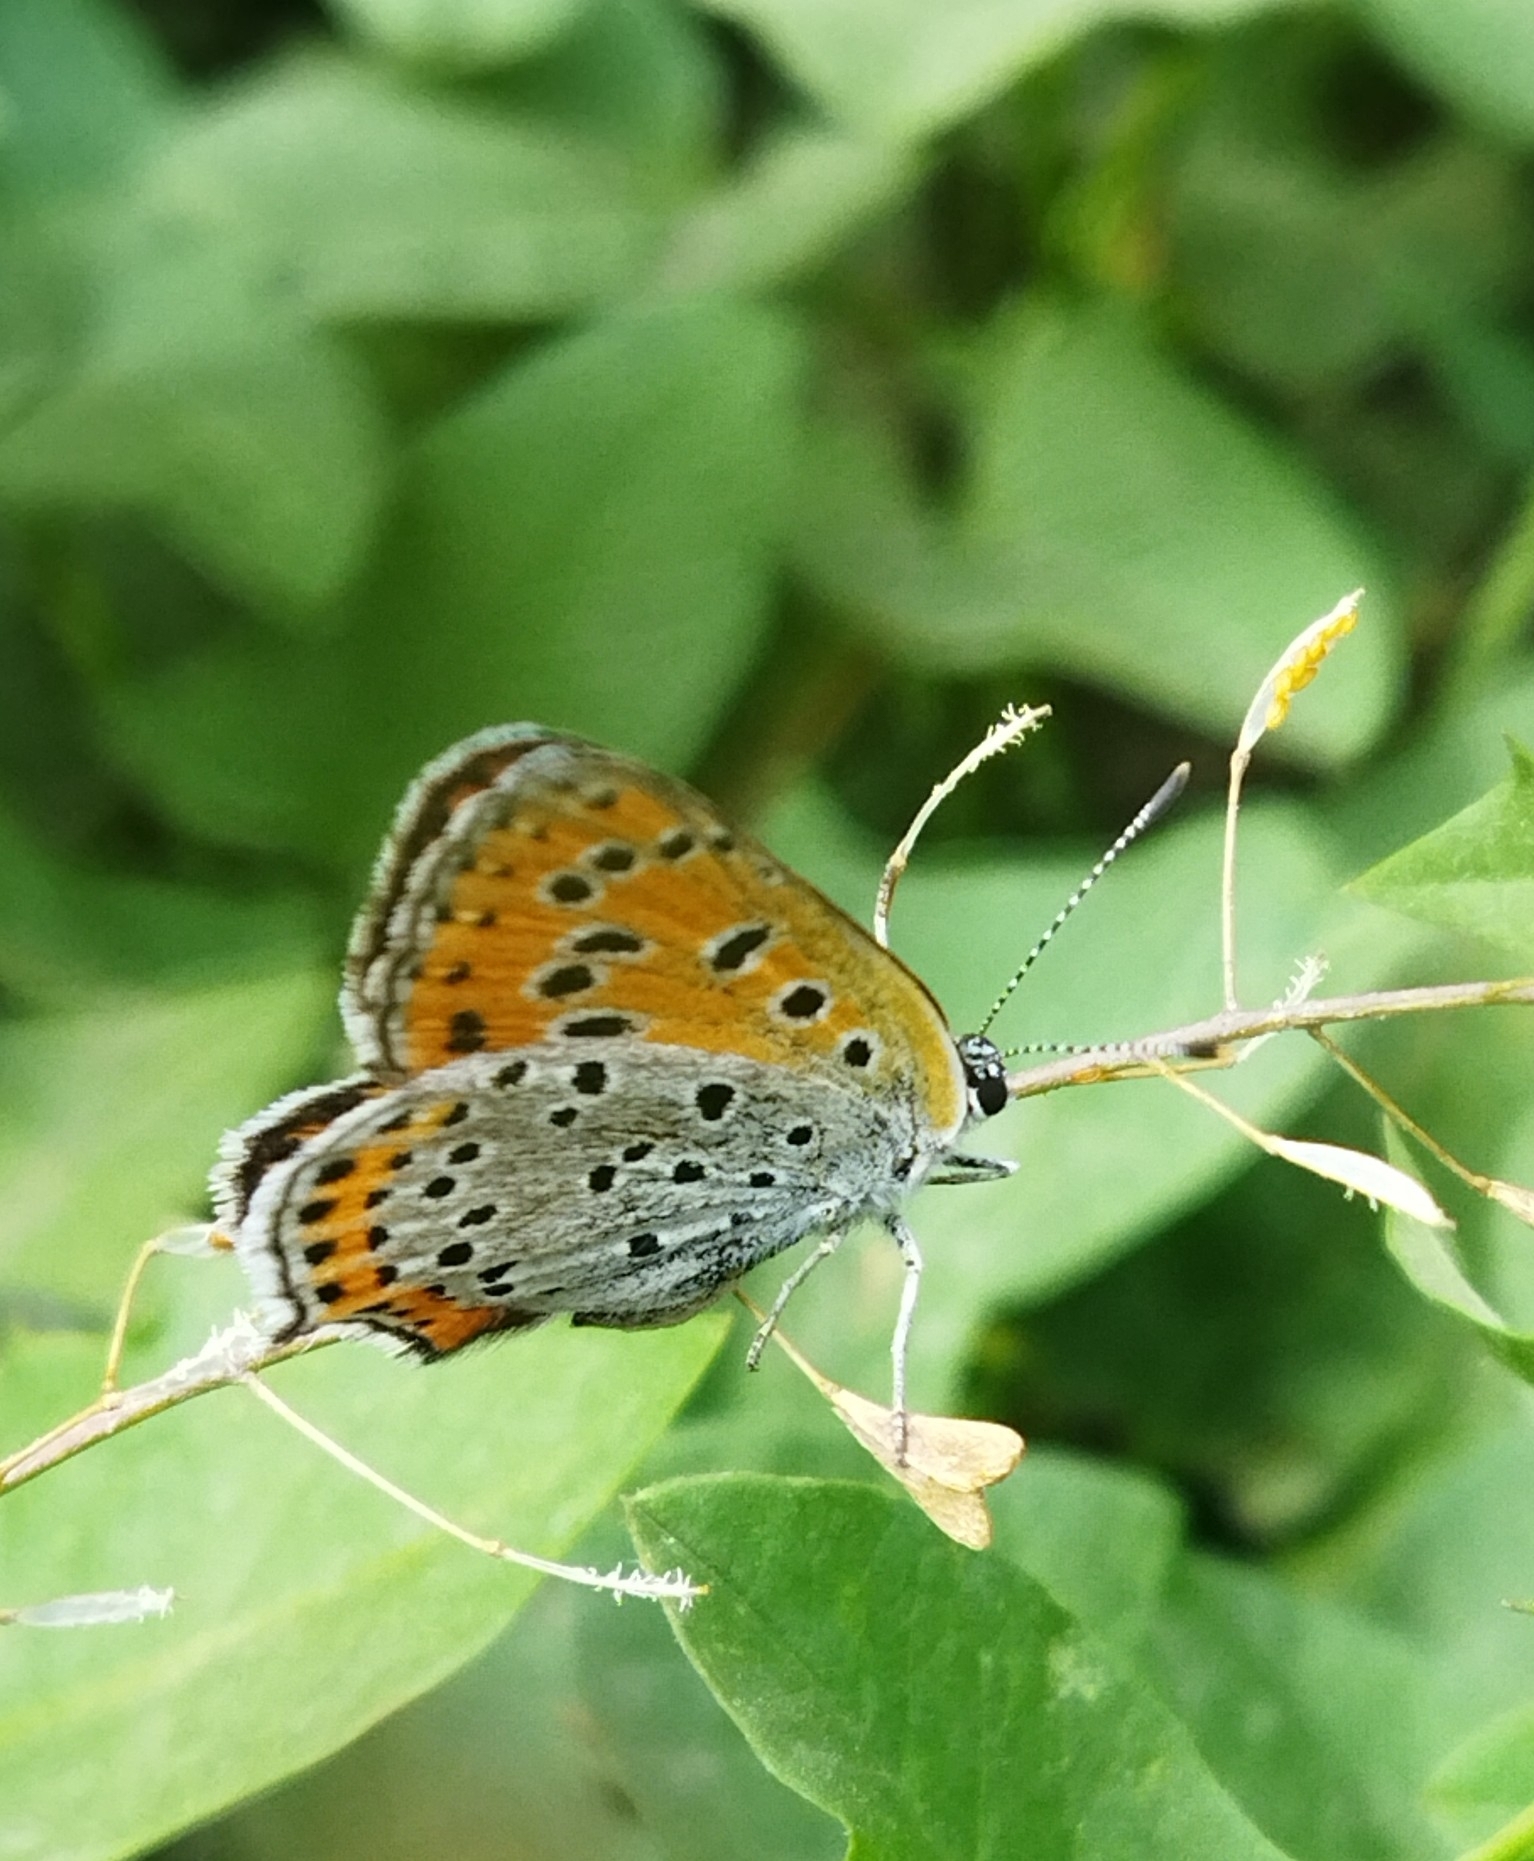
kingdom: Animalia
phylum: Arthropoda
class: Insecta
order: Lepidoptera
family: Lycaenidae
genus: Thersamonia
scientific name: Thersamonia thersamon
